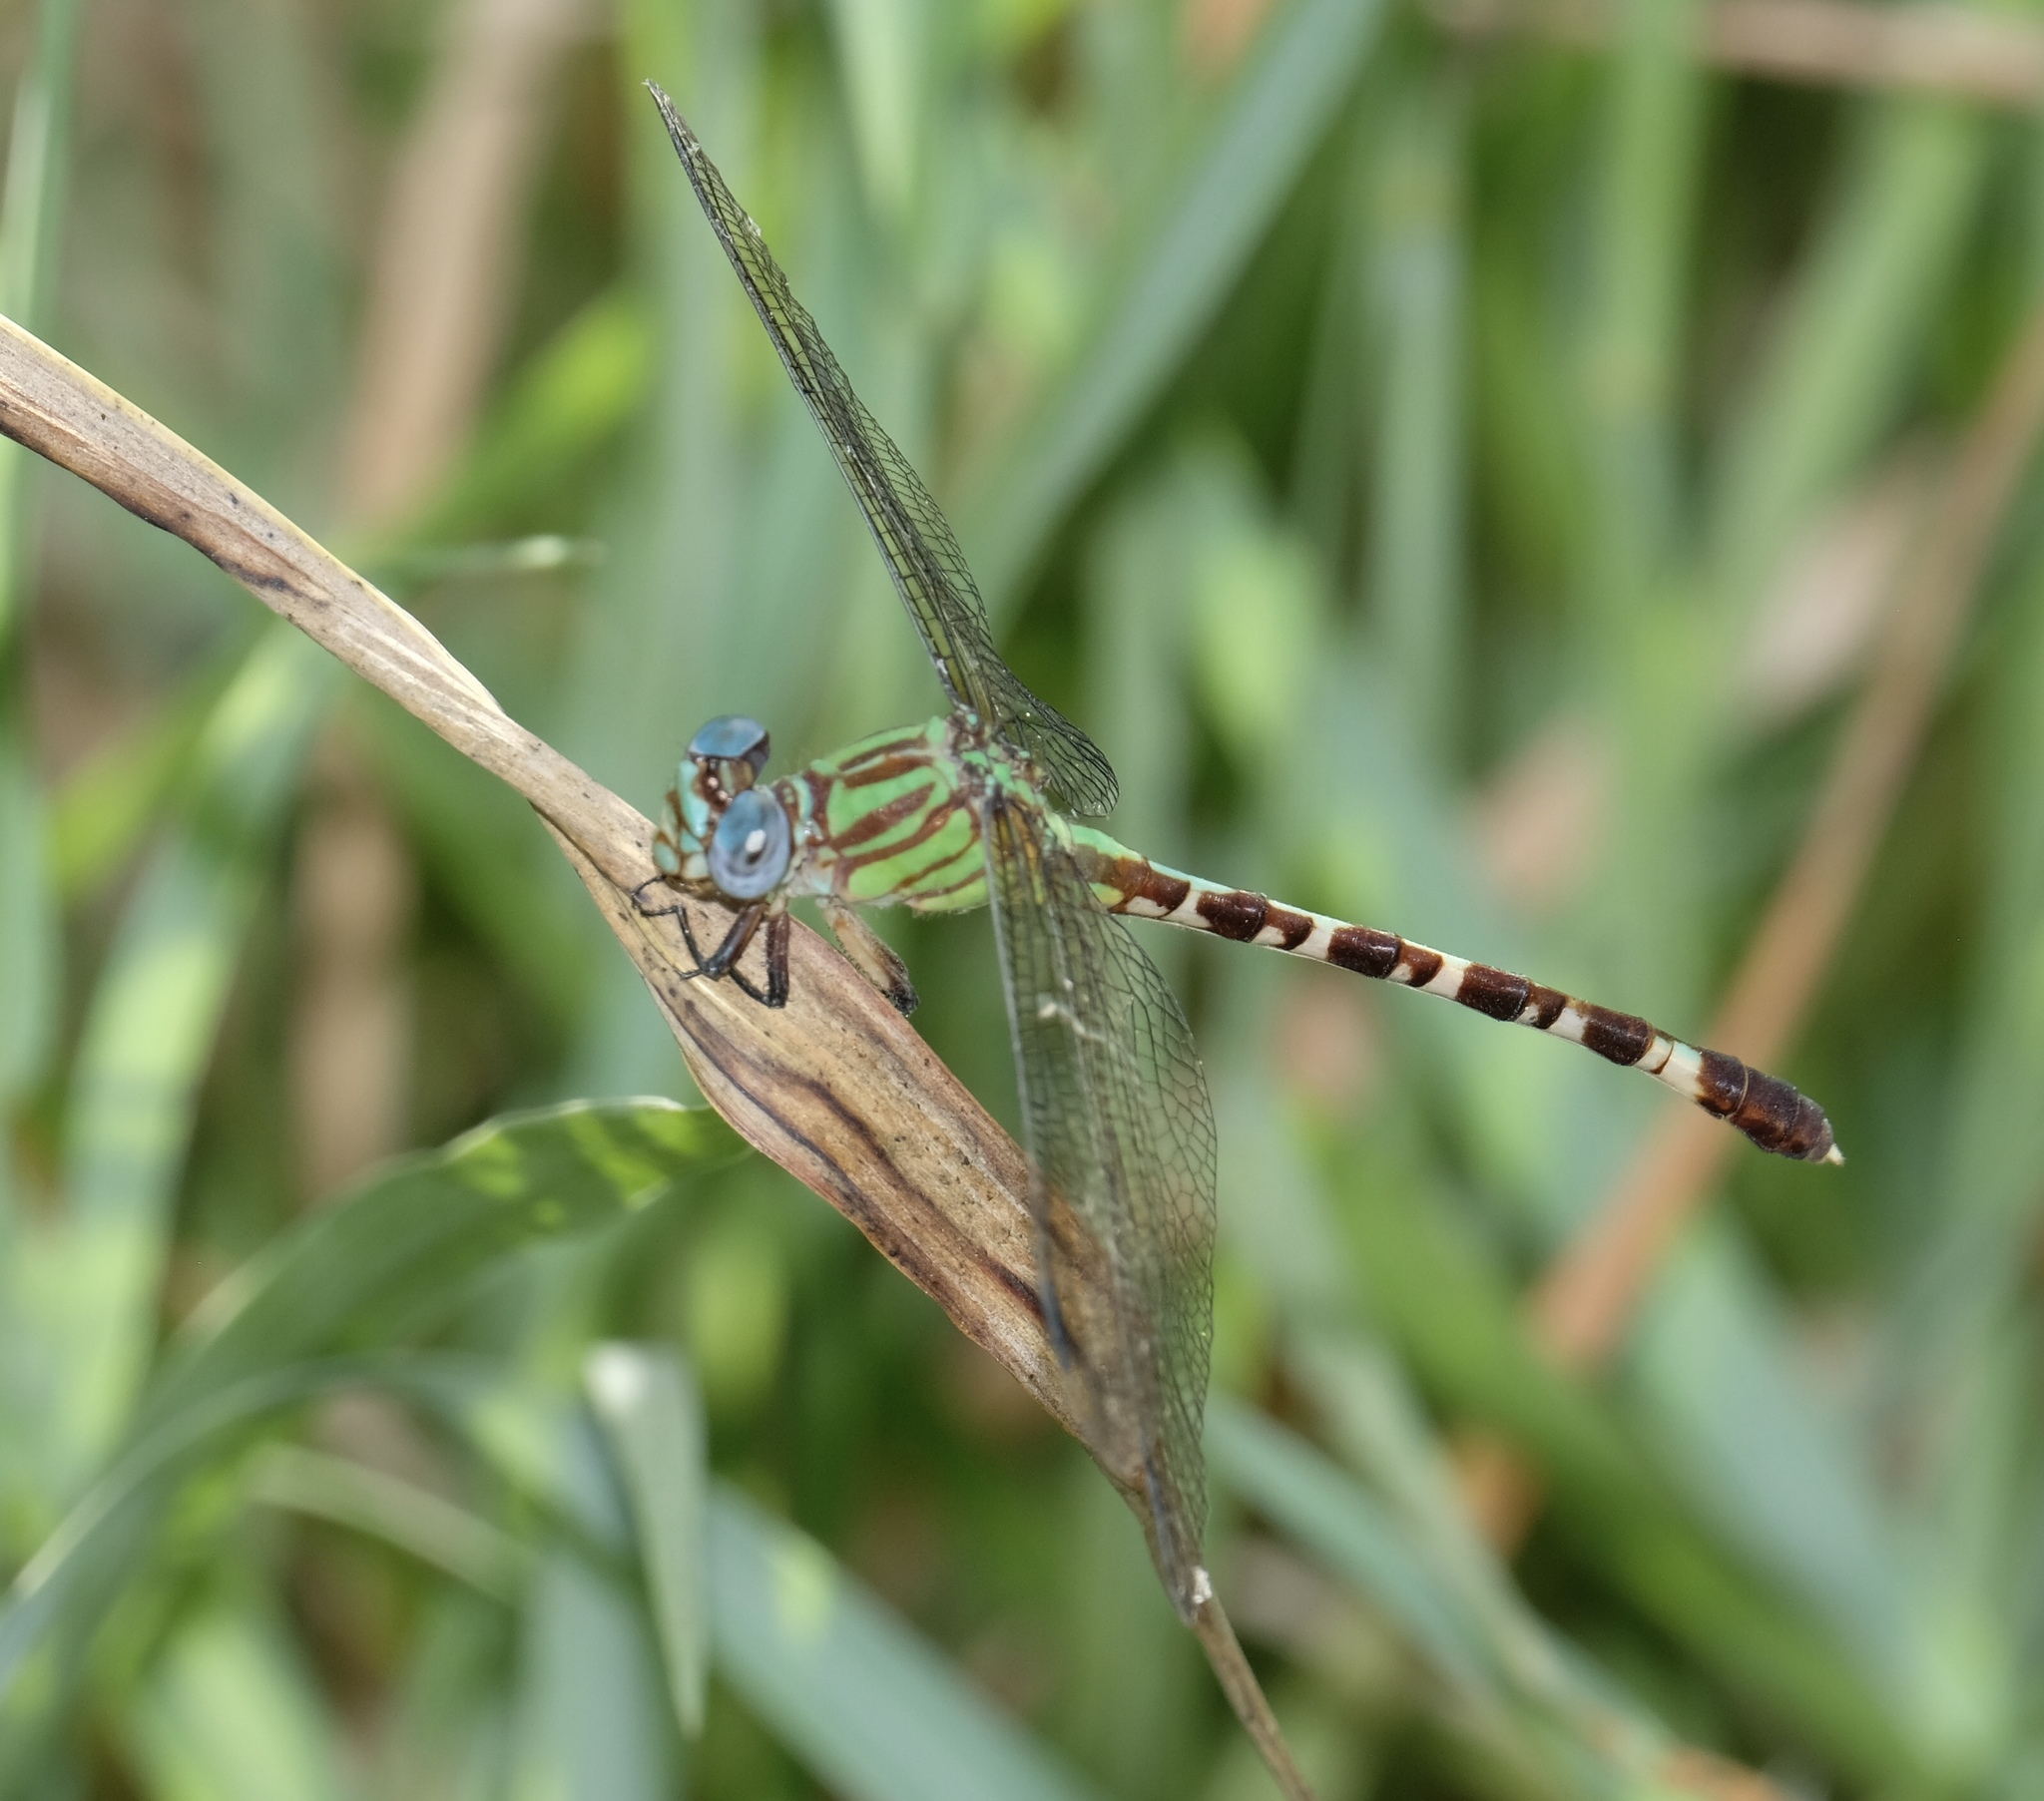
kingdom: Animalia
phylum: Arthropoda
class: Insecta
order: Odonata
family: Gomphidae
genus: Erpetogomphus
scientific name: Erpetogomphus eutainia
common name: Blue-faced ringtail
